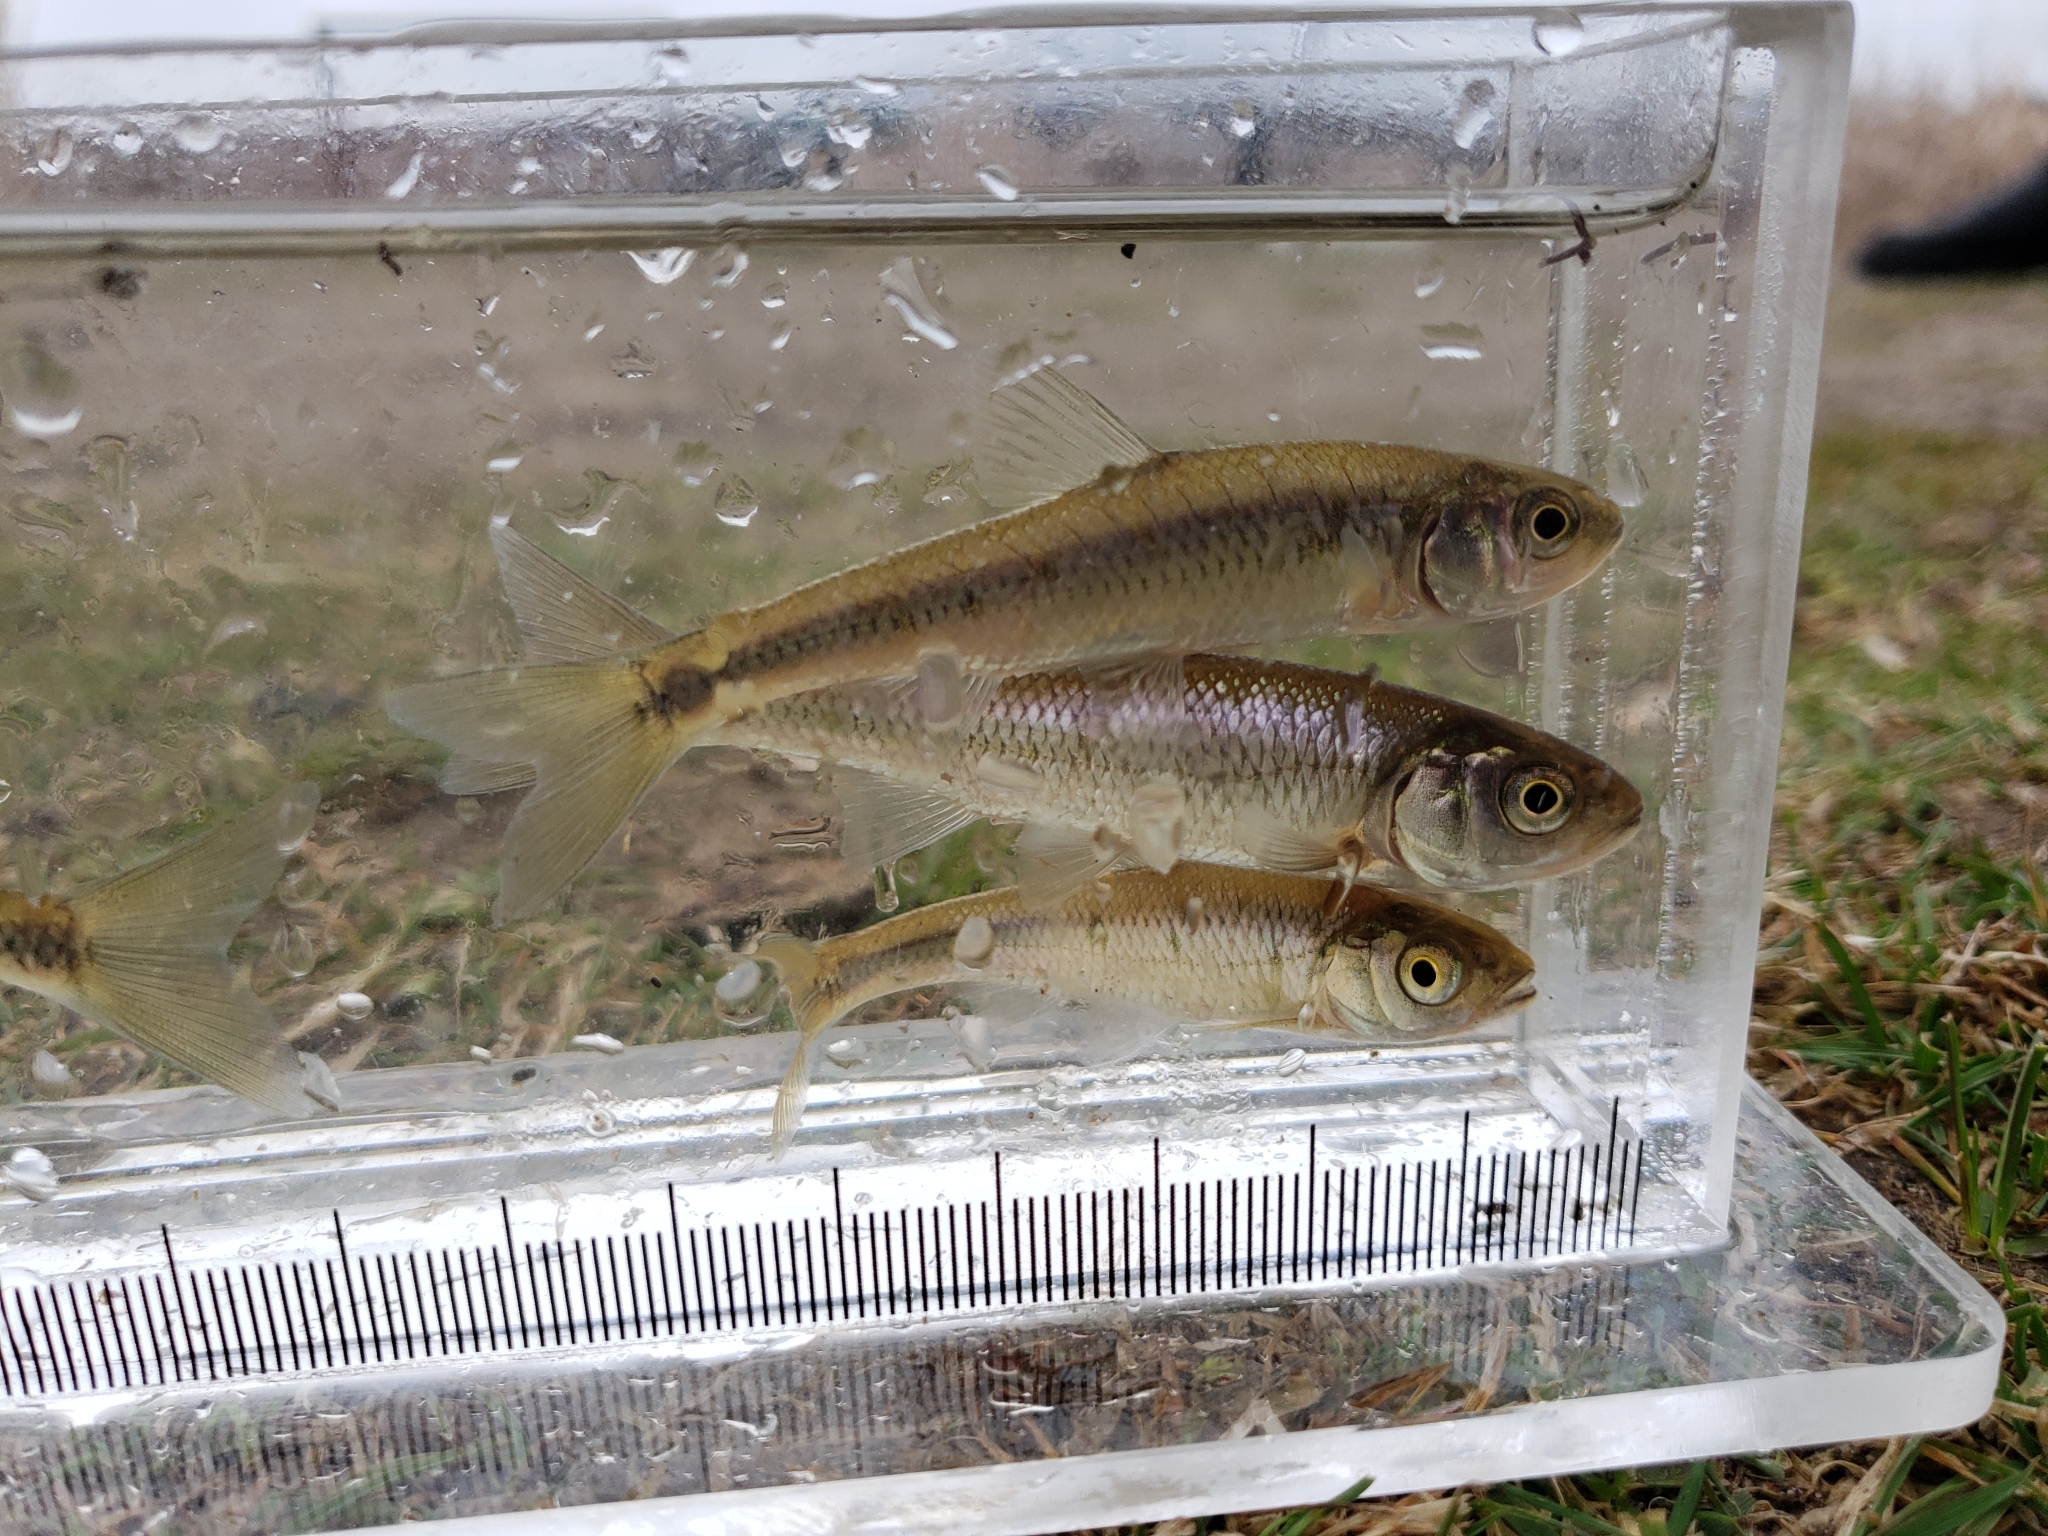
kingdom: Animalia
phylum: Chordata
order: Cypriniformes
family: Cyprinidae
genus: Luxilus
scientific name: Luxilus cornutus
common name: Common shiner
